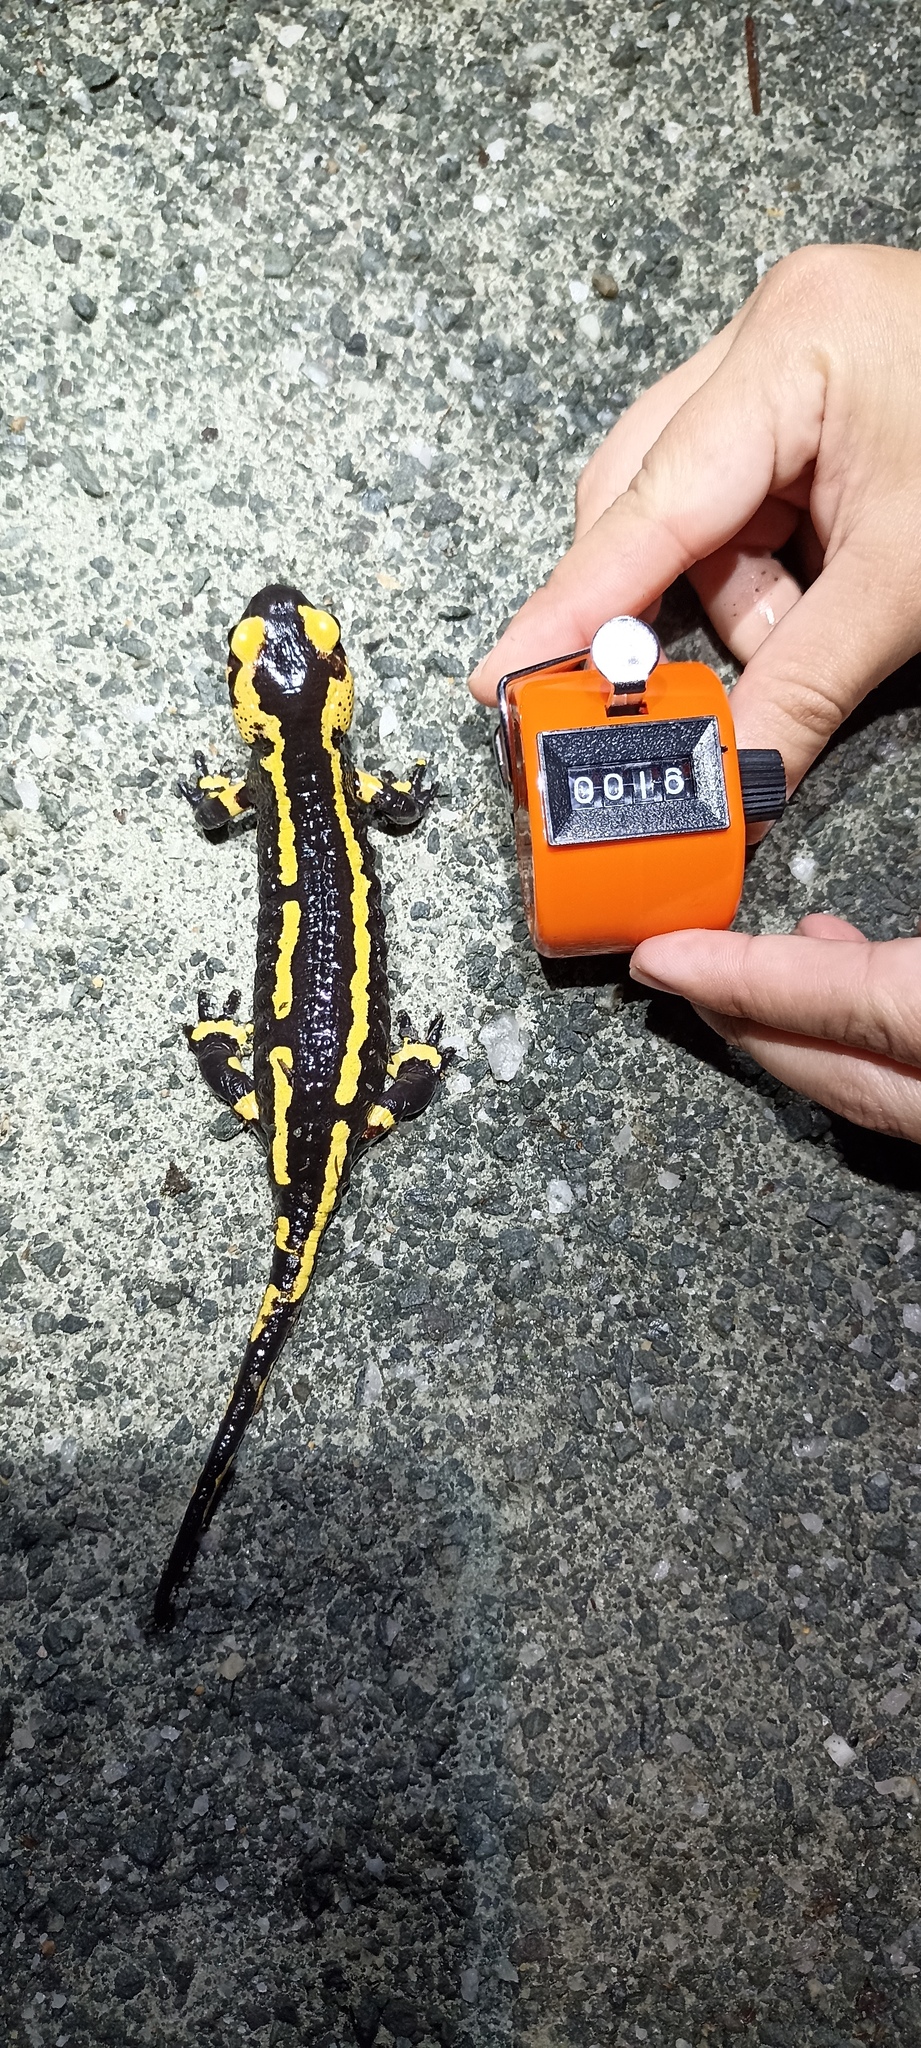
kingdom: Animalia
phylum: Chordata
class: Amphibia
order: Caudata
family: Salamandridae
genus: Salamandra
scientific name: Salamandra salamandra
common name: Fire salamander
